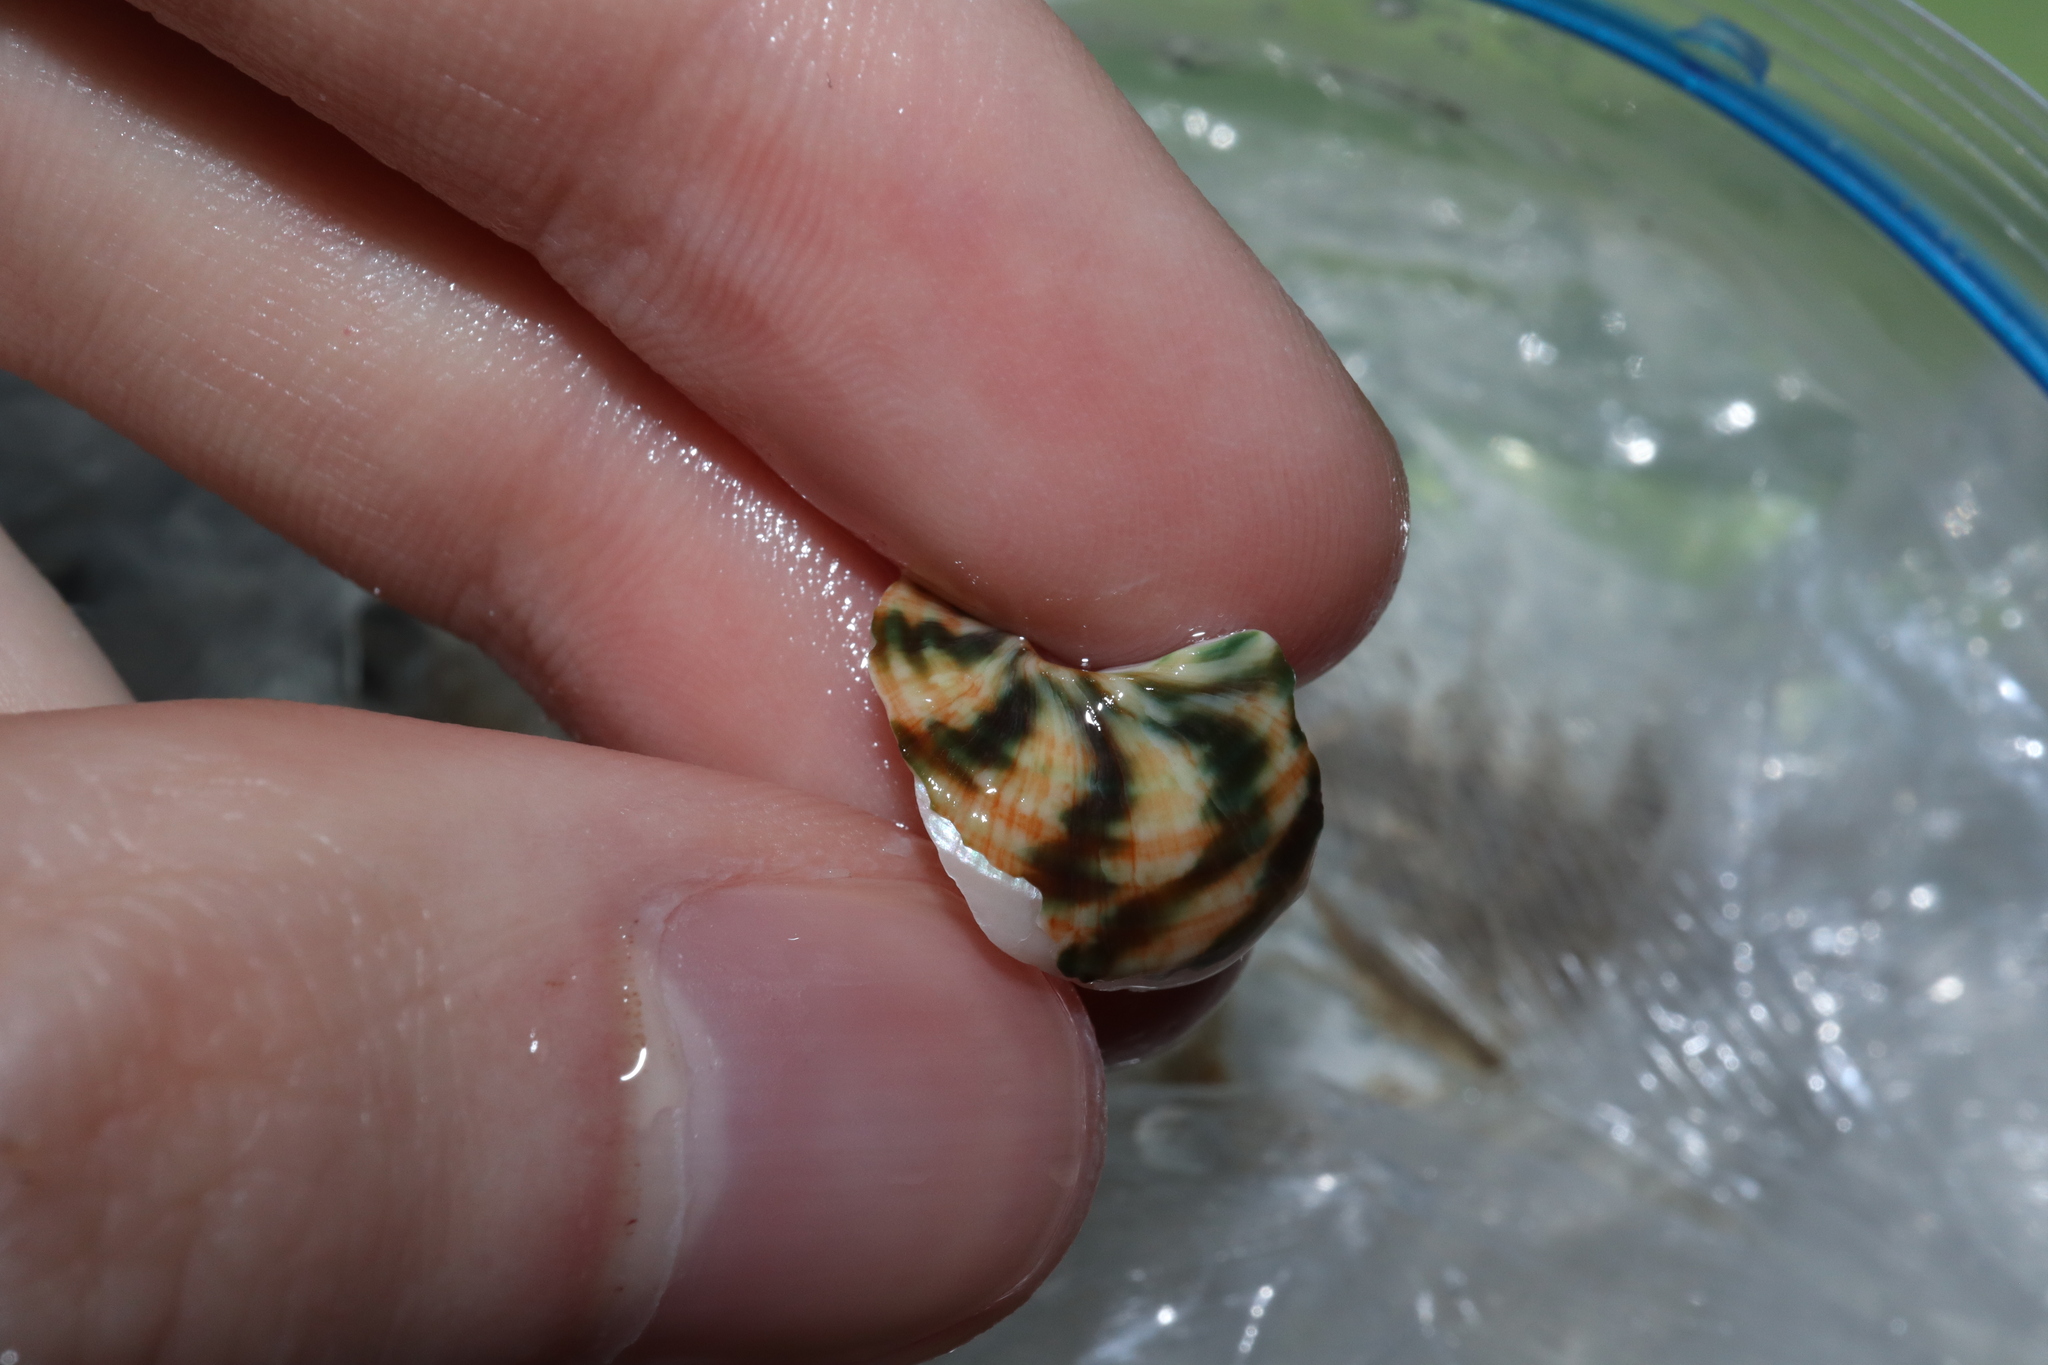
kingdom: Animalia
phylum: Mollusca
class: Gastropoda
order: Trochida
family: Turbinidae
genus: Lunella
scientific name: Lunella undulata
